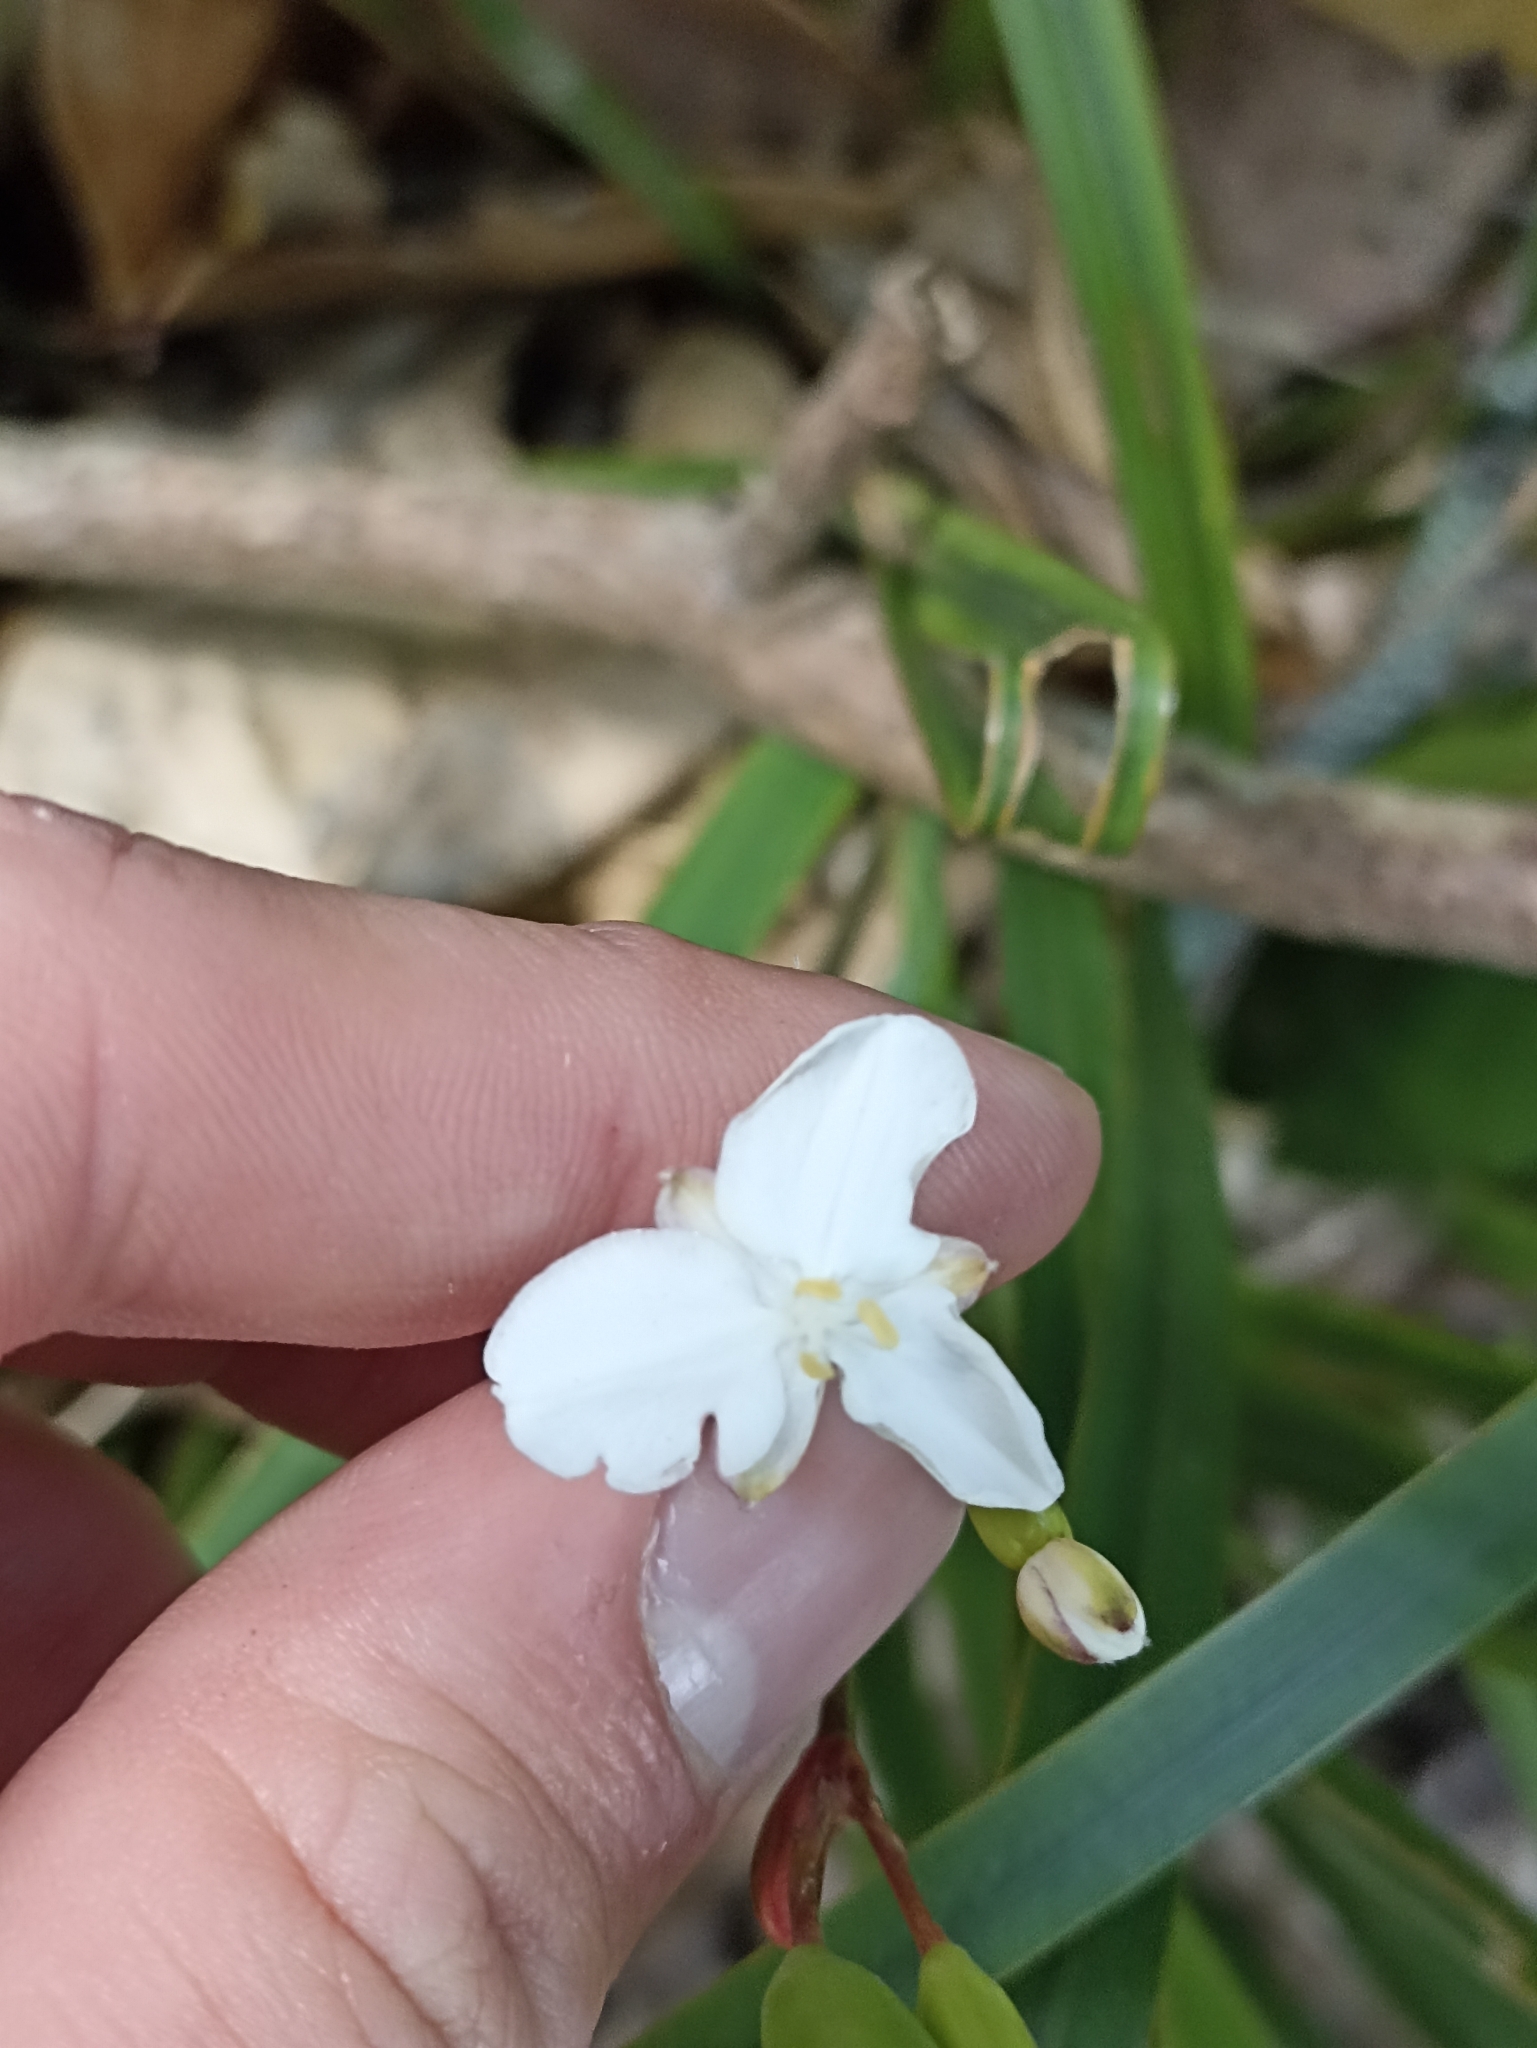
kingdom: Plantae
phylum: Tracheophyta
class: Liliopsida
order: Asparagales
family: Iridaceae
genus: Libertia
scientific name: Libertia ixioides
